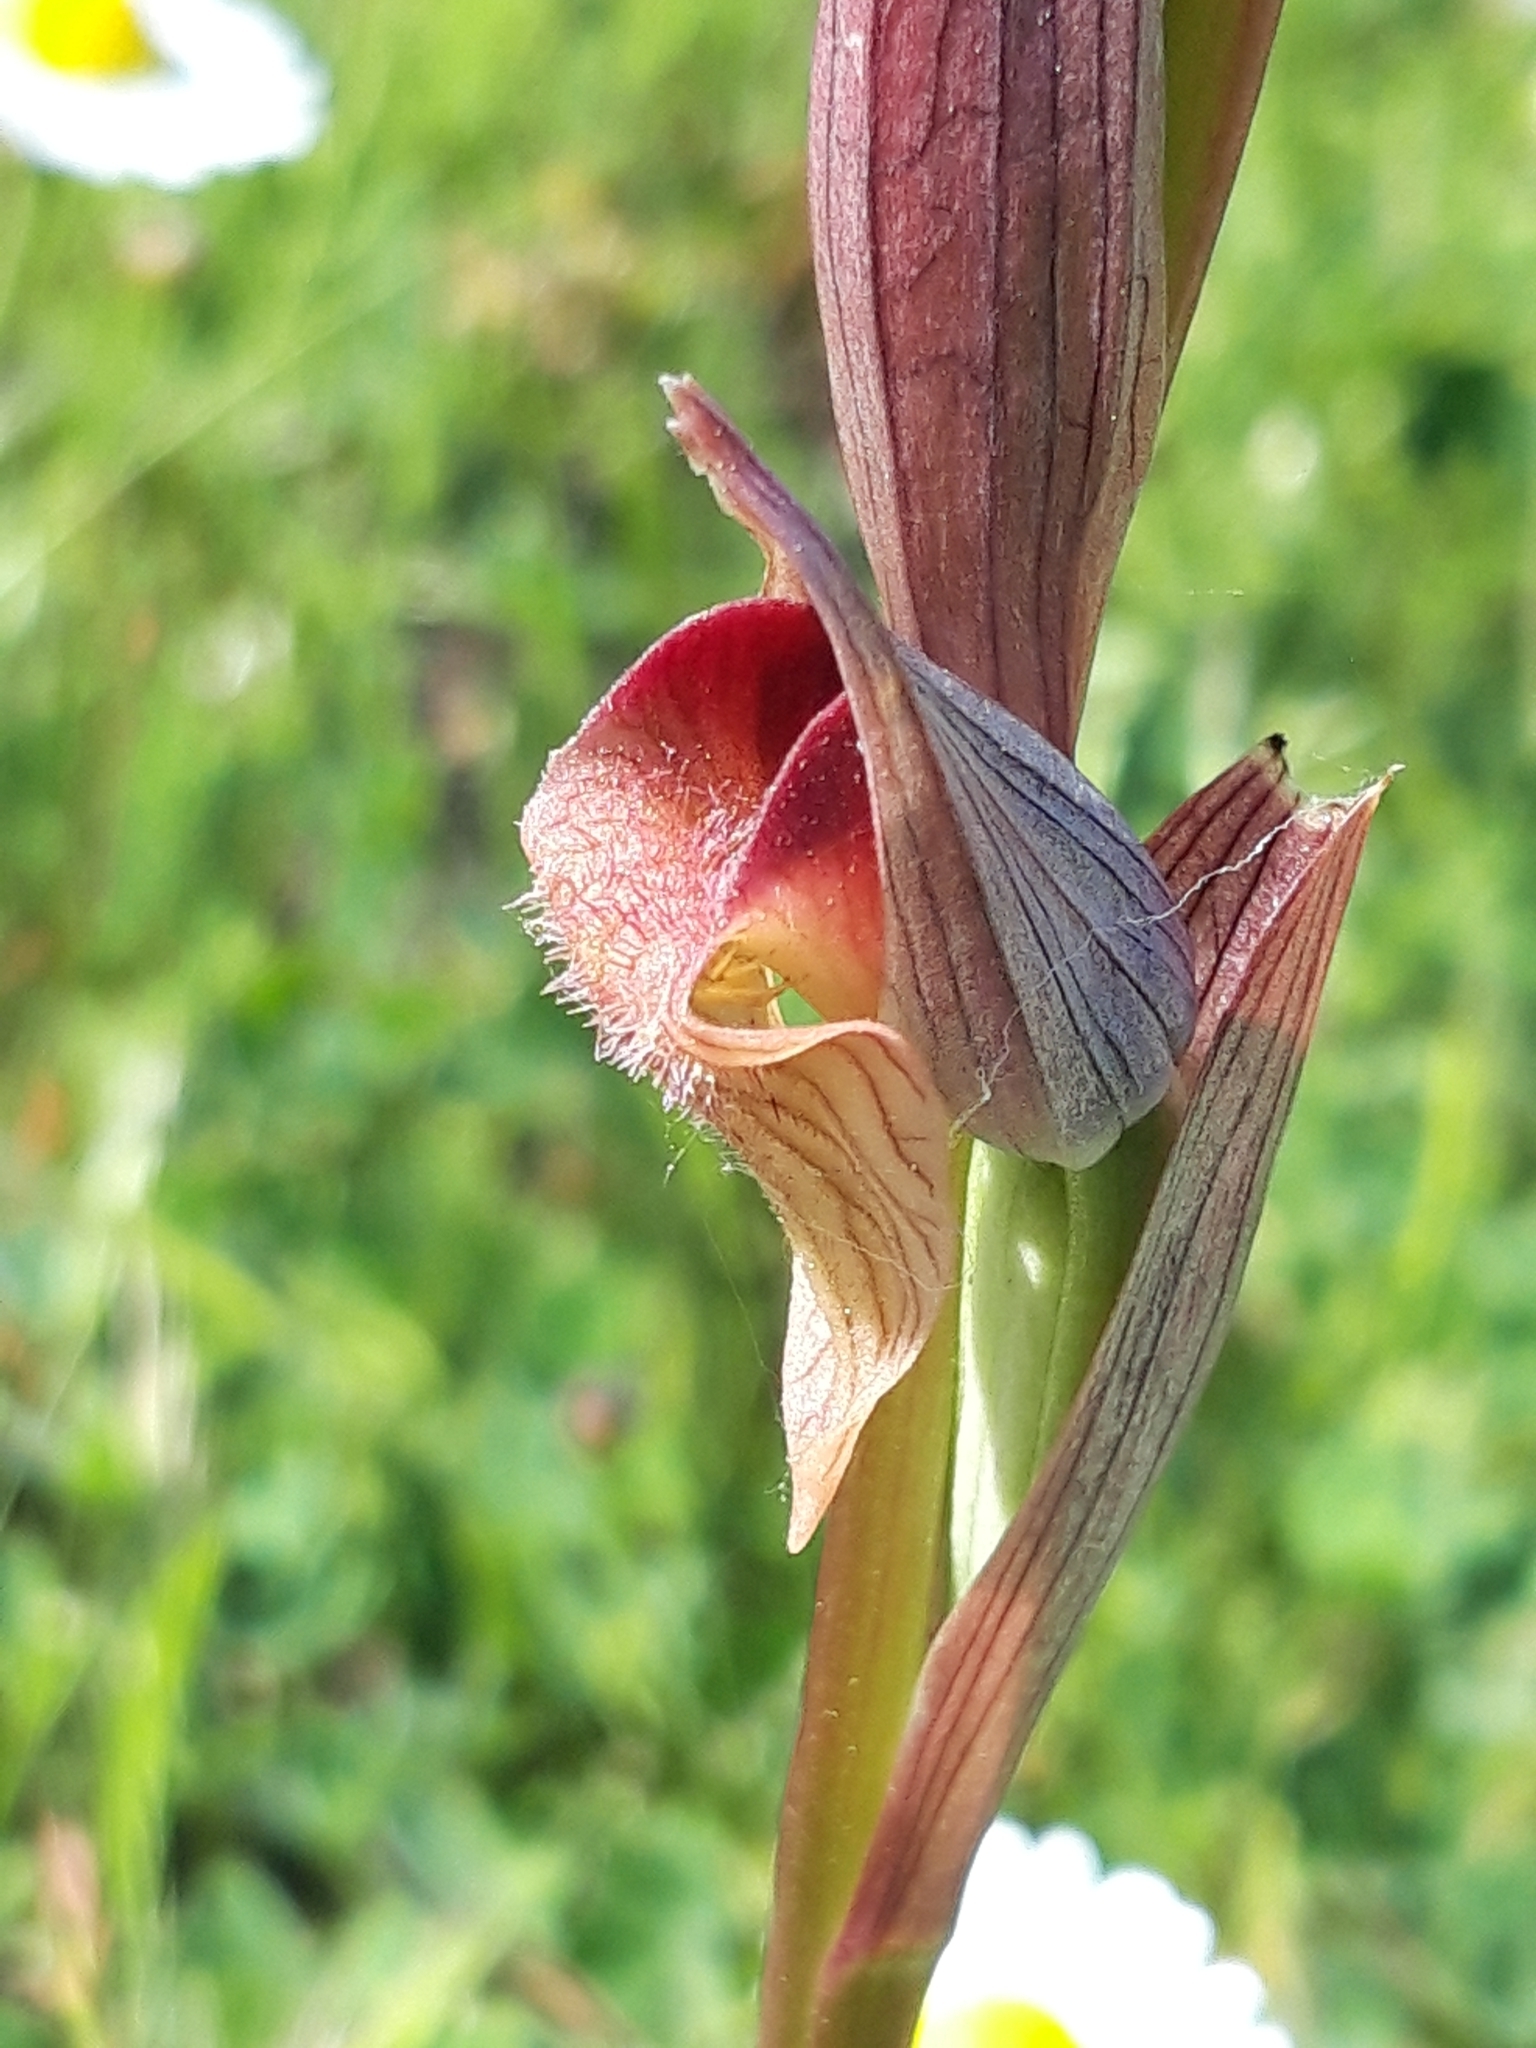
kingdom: Plantae
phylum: Tracheophyta
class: Liliopsida
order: Asparagales
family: Orchidaceae
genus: Serapias
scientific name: Serapias vomeracea
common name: Long-lipped tongue-orchid
